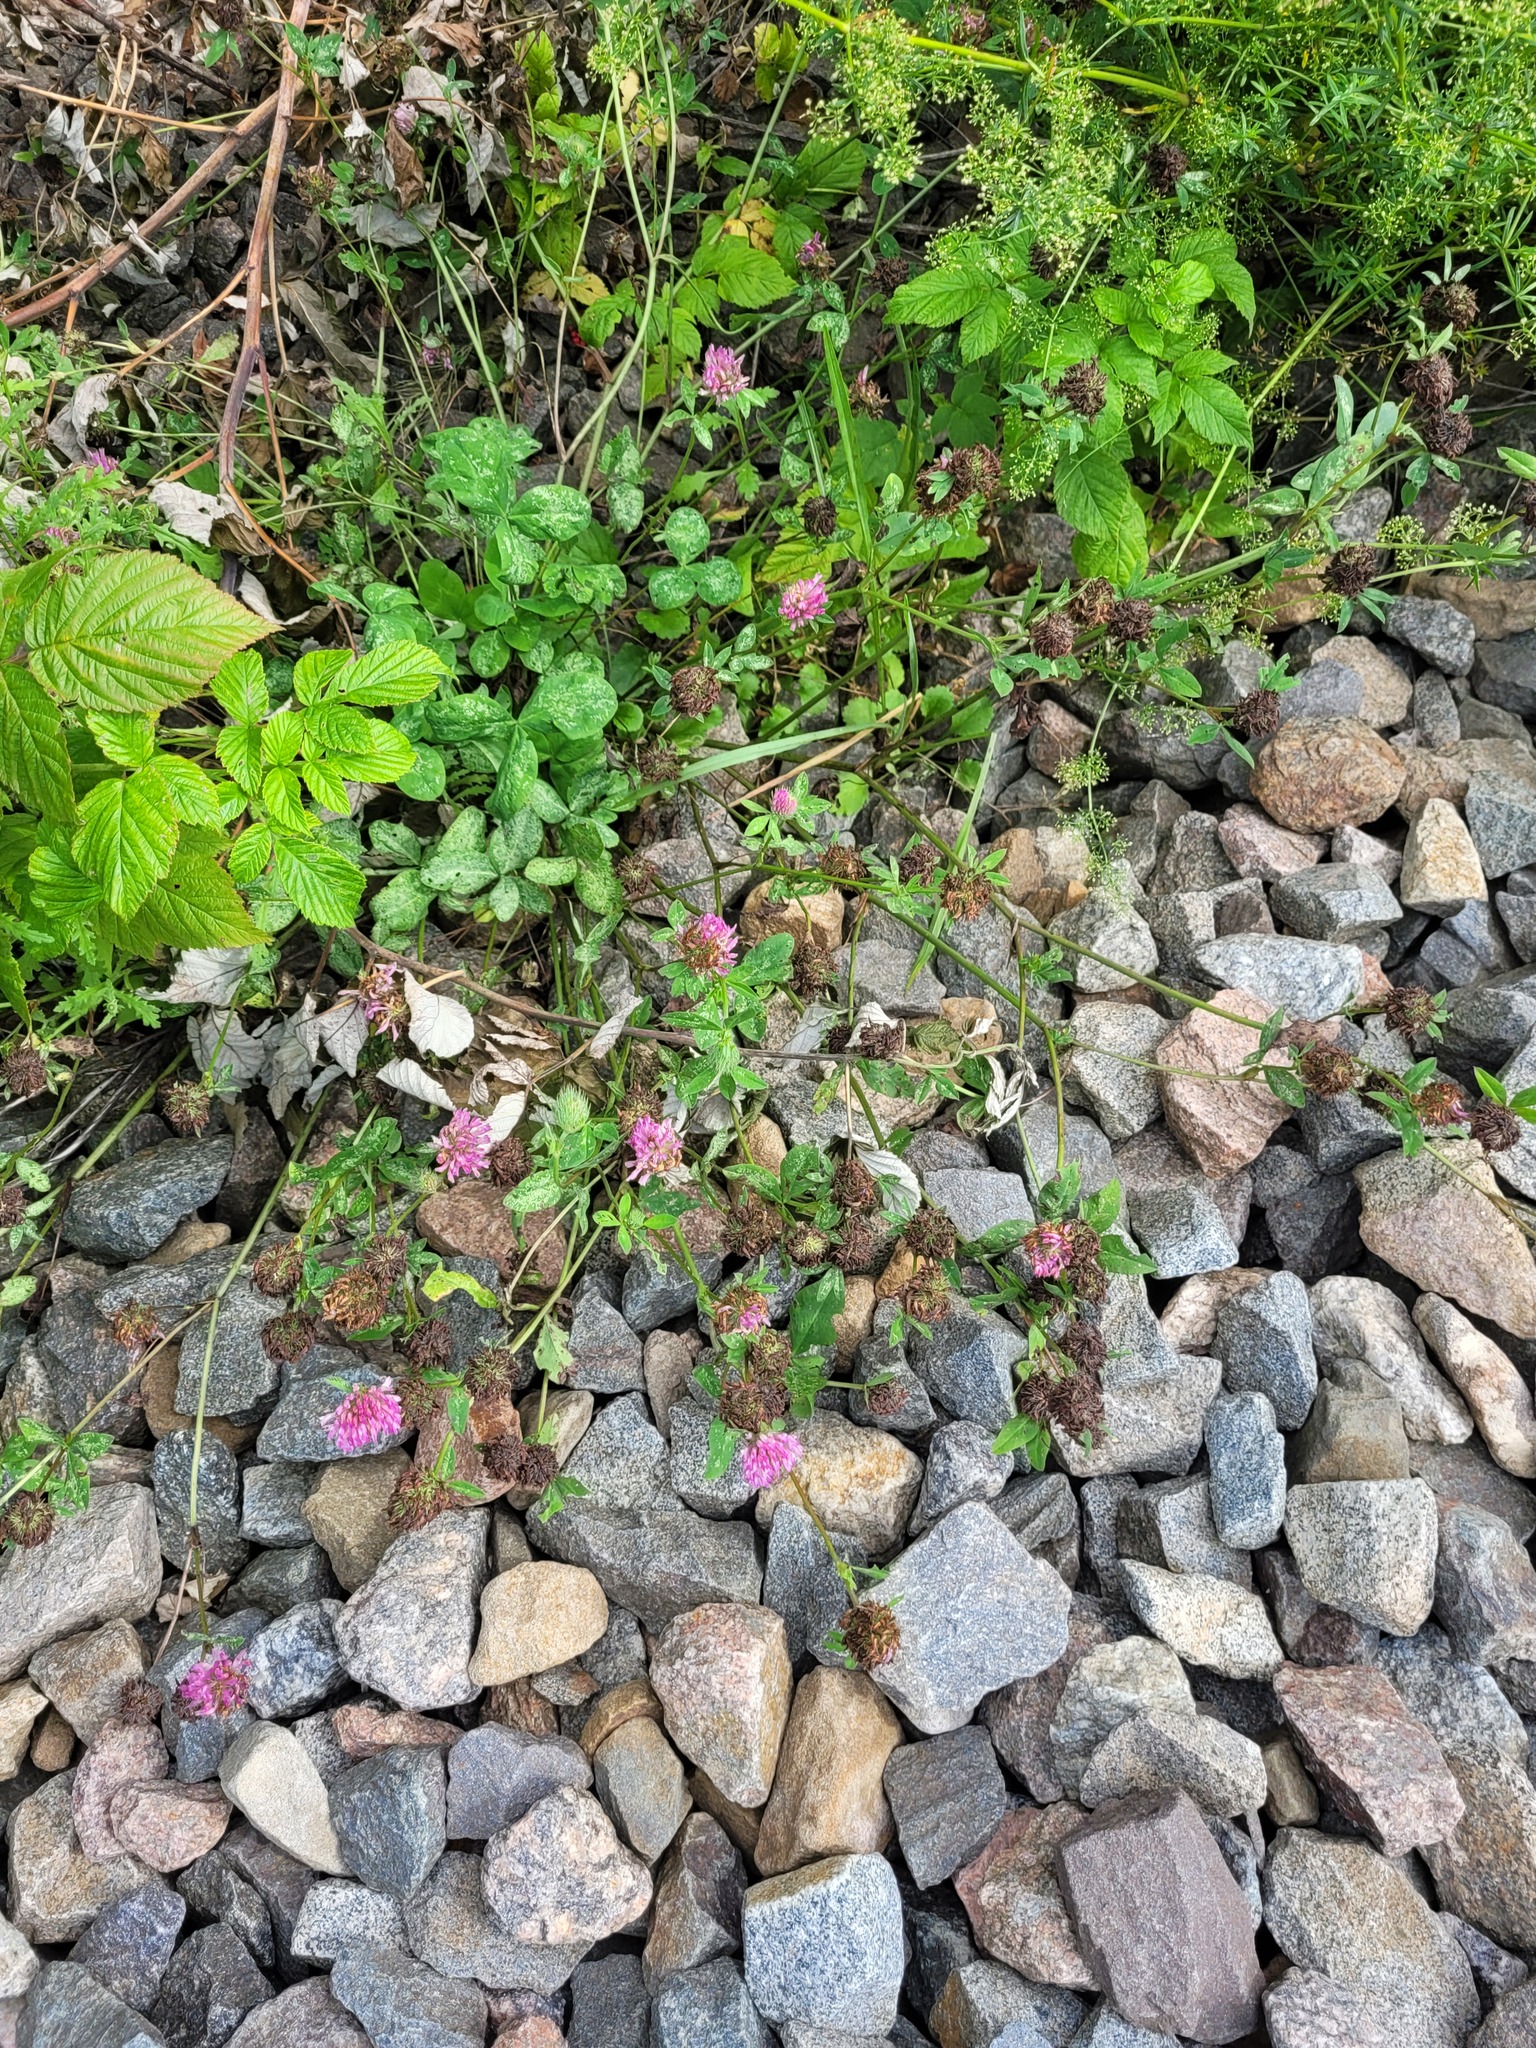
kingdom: Plantae
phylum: Tracheophyta
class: Magnoliopsida
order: Fabales
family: Fabaceae
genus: Trifolium
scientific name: Trifolium pratense
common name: Red clover
